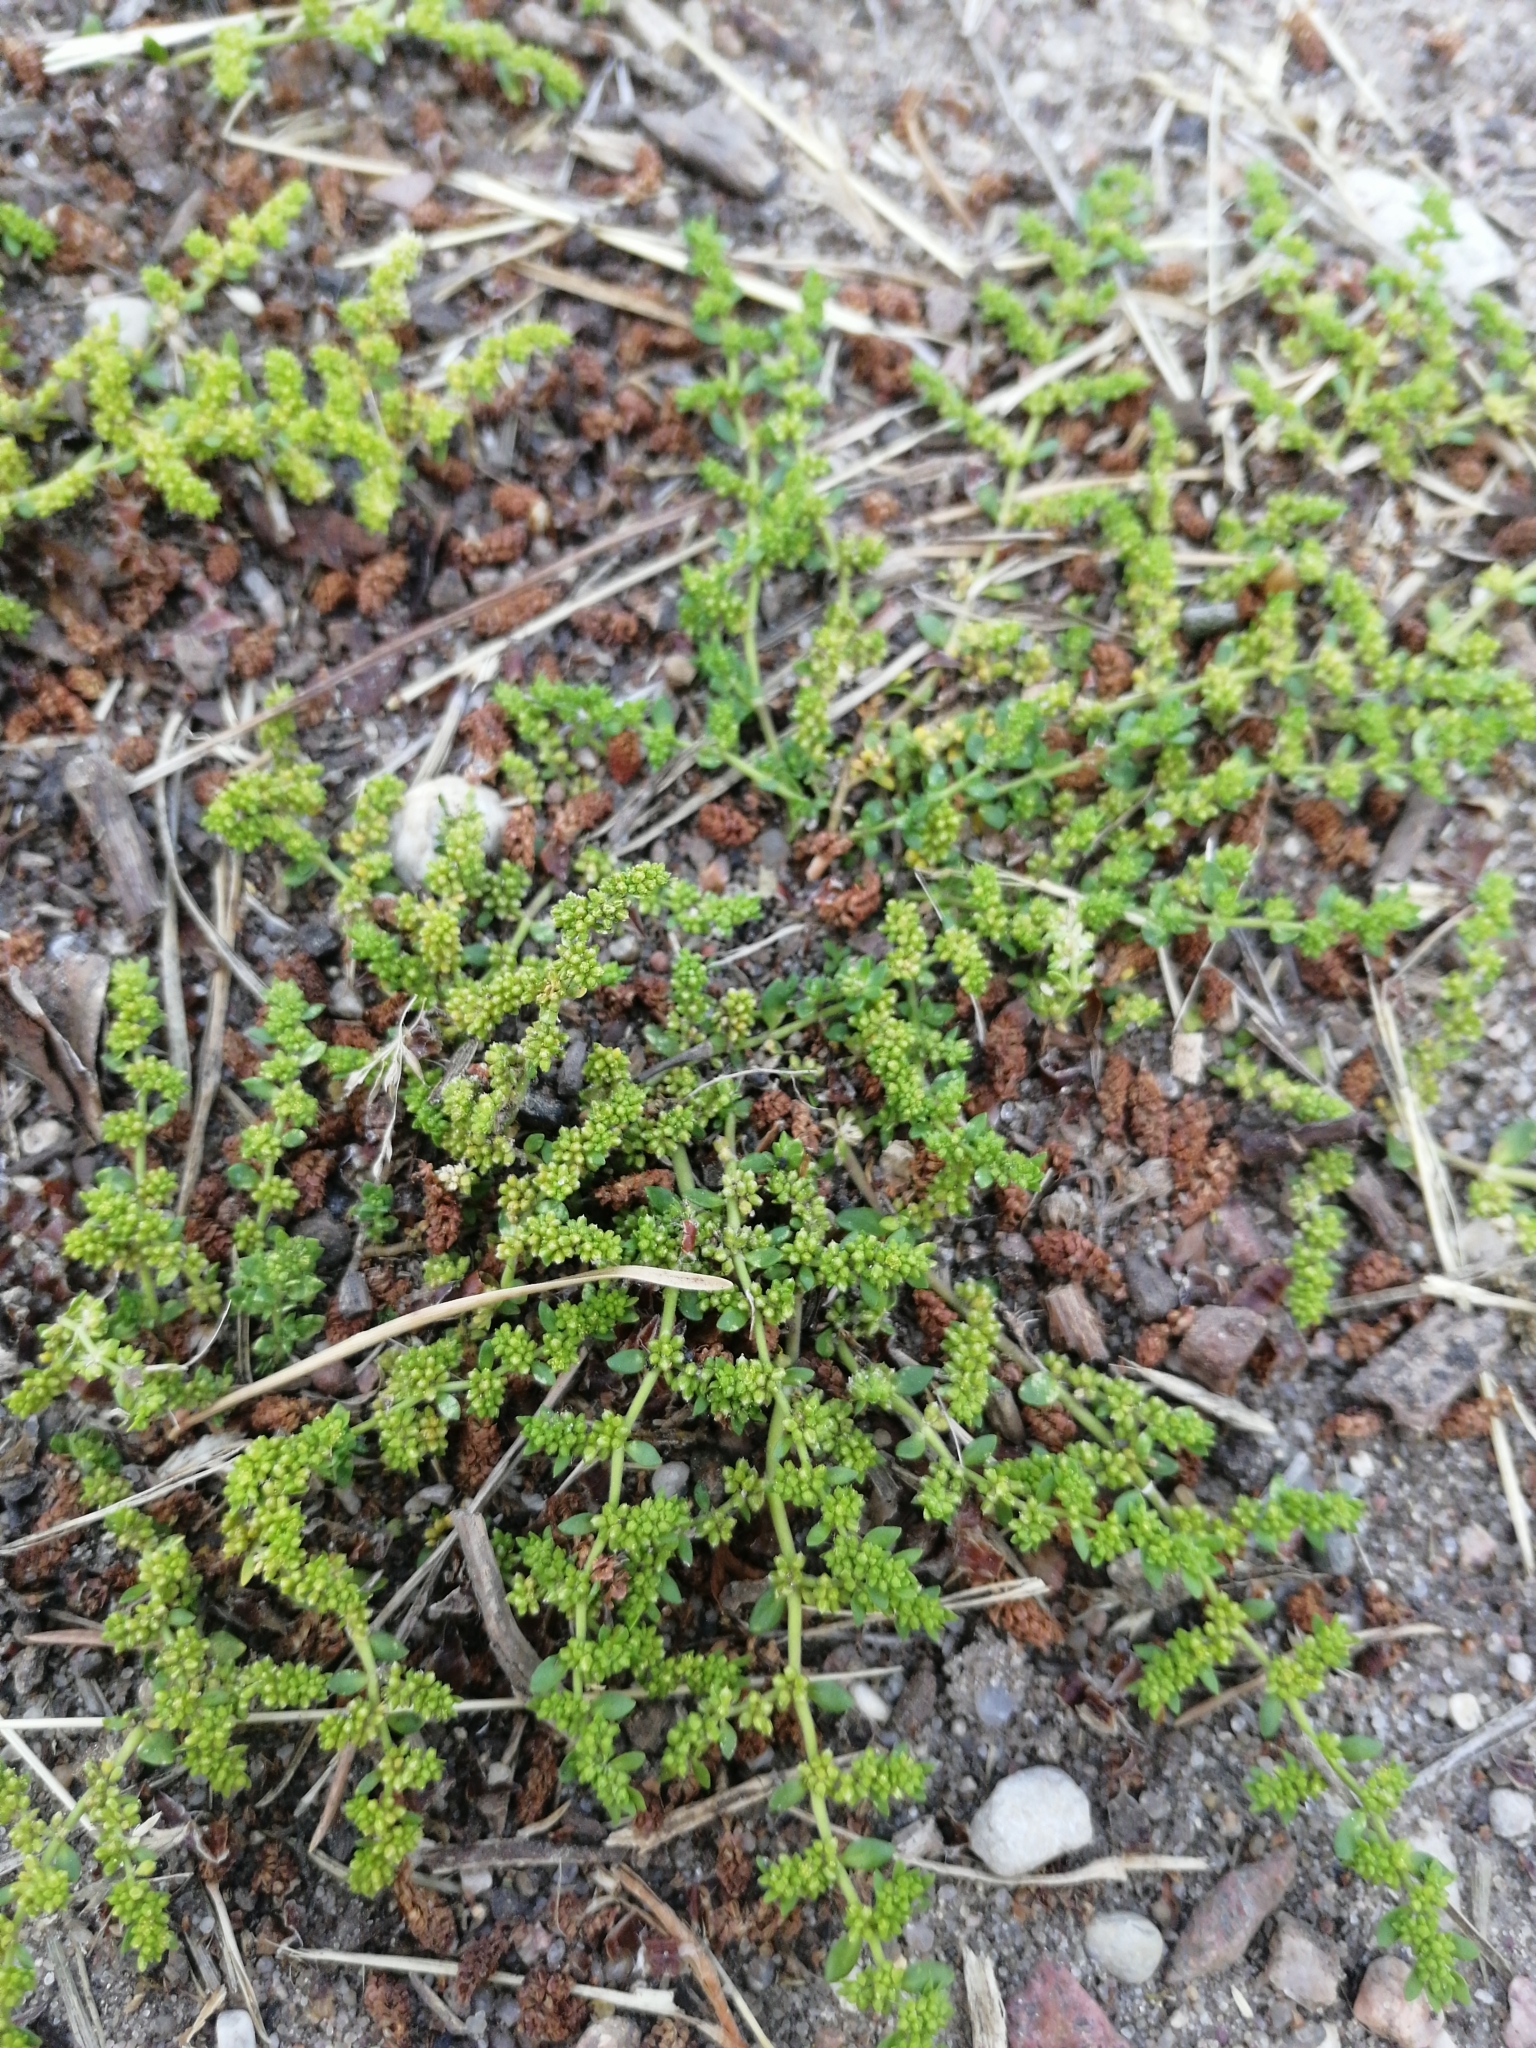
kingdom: Plantae
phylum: Tracheophyta
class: Magnoliopsida
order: Caryophyllales
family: Caryophyllaceae
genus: Herniaria
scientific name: Herniaria glabra
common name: Smooth rupturewort
